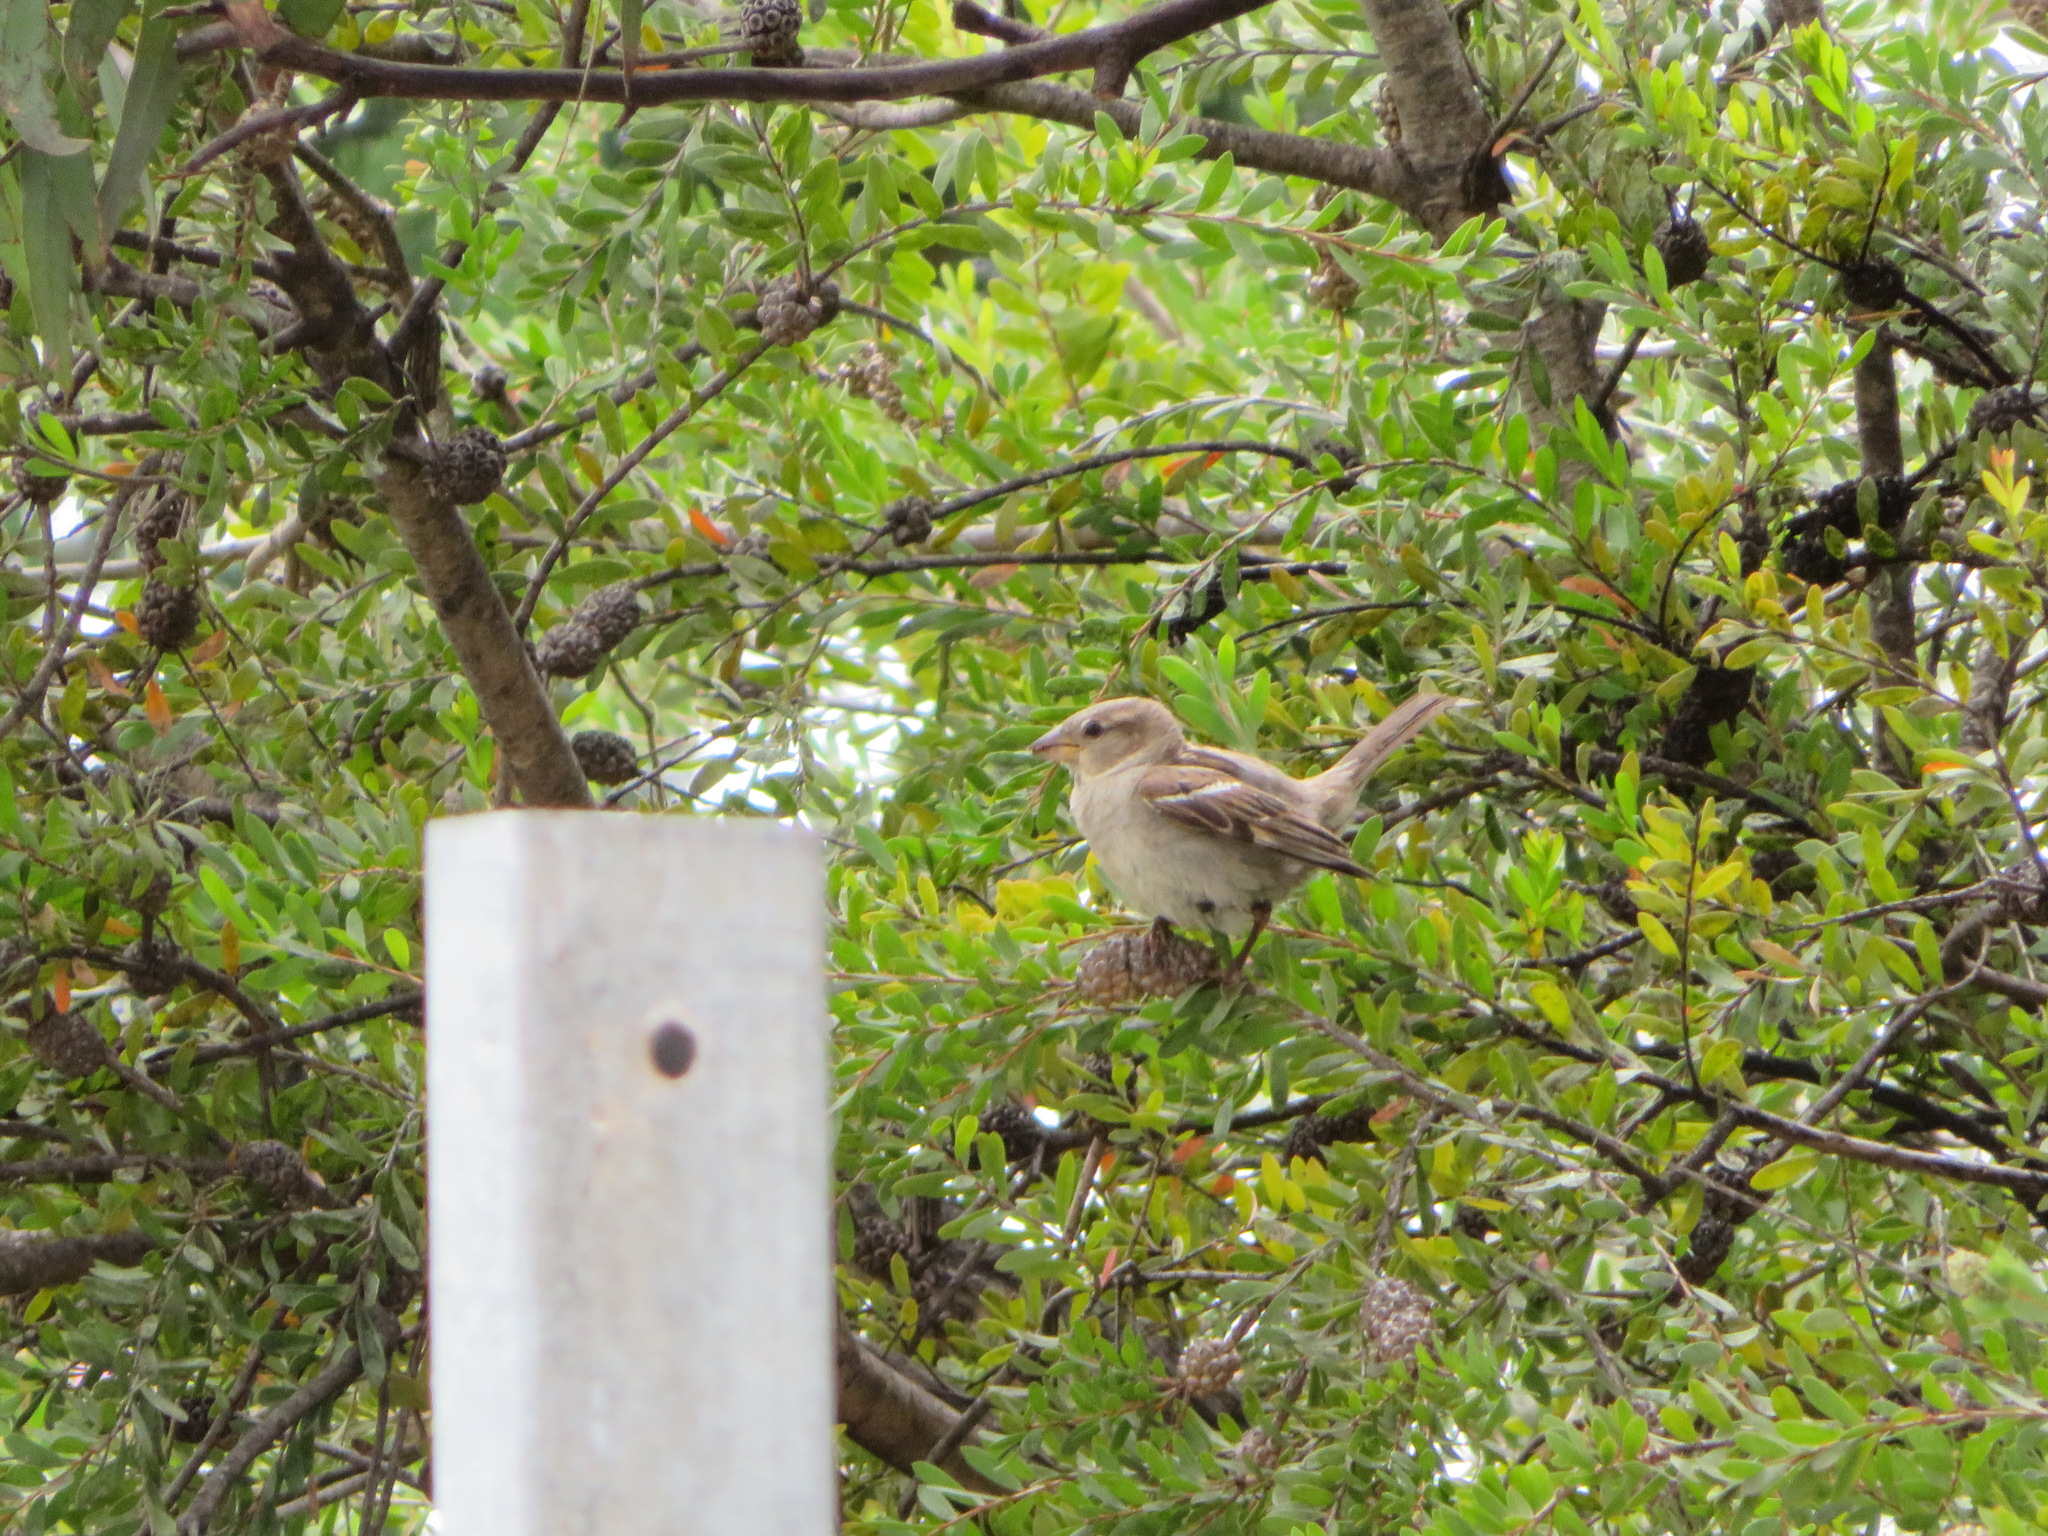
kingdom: Animalia
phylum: Chordata
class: Aves
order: Passeriformes
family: Passeridae
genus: Passer
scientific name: Passer domesticus
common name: House sparrow
